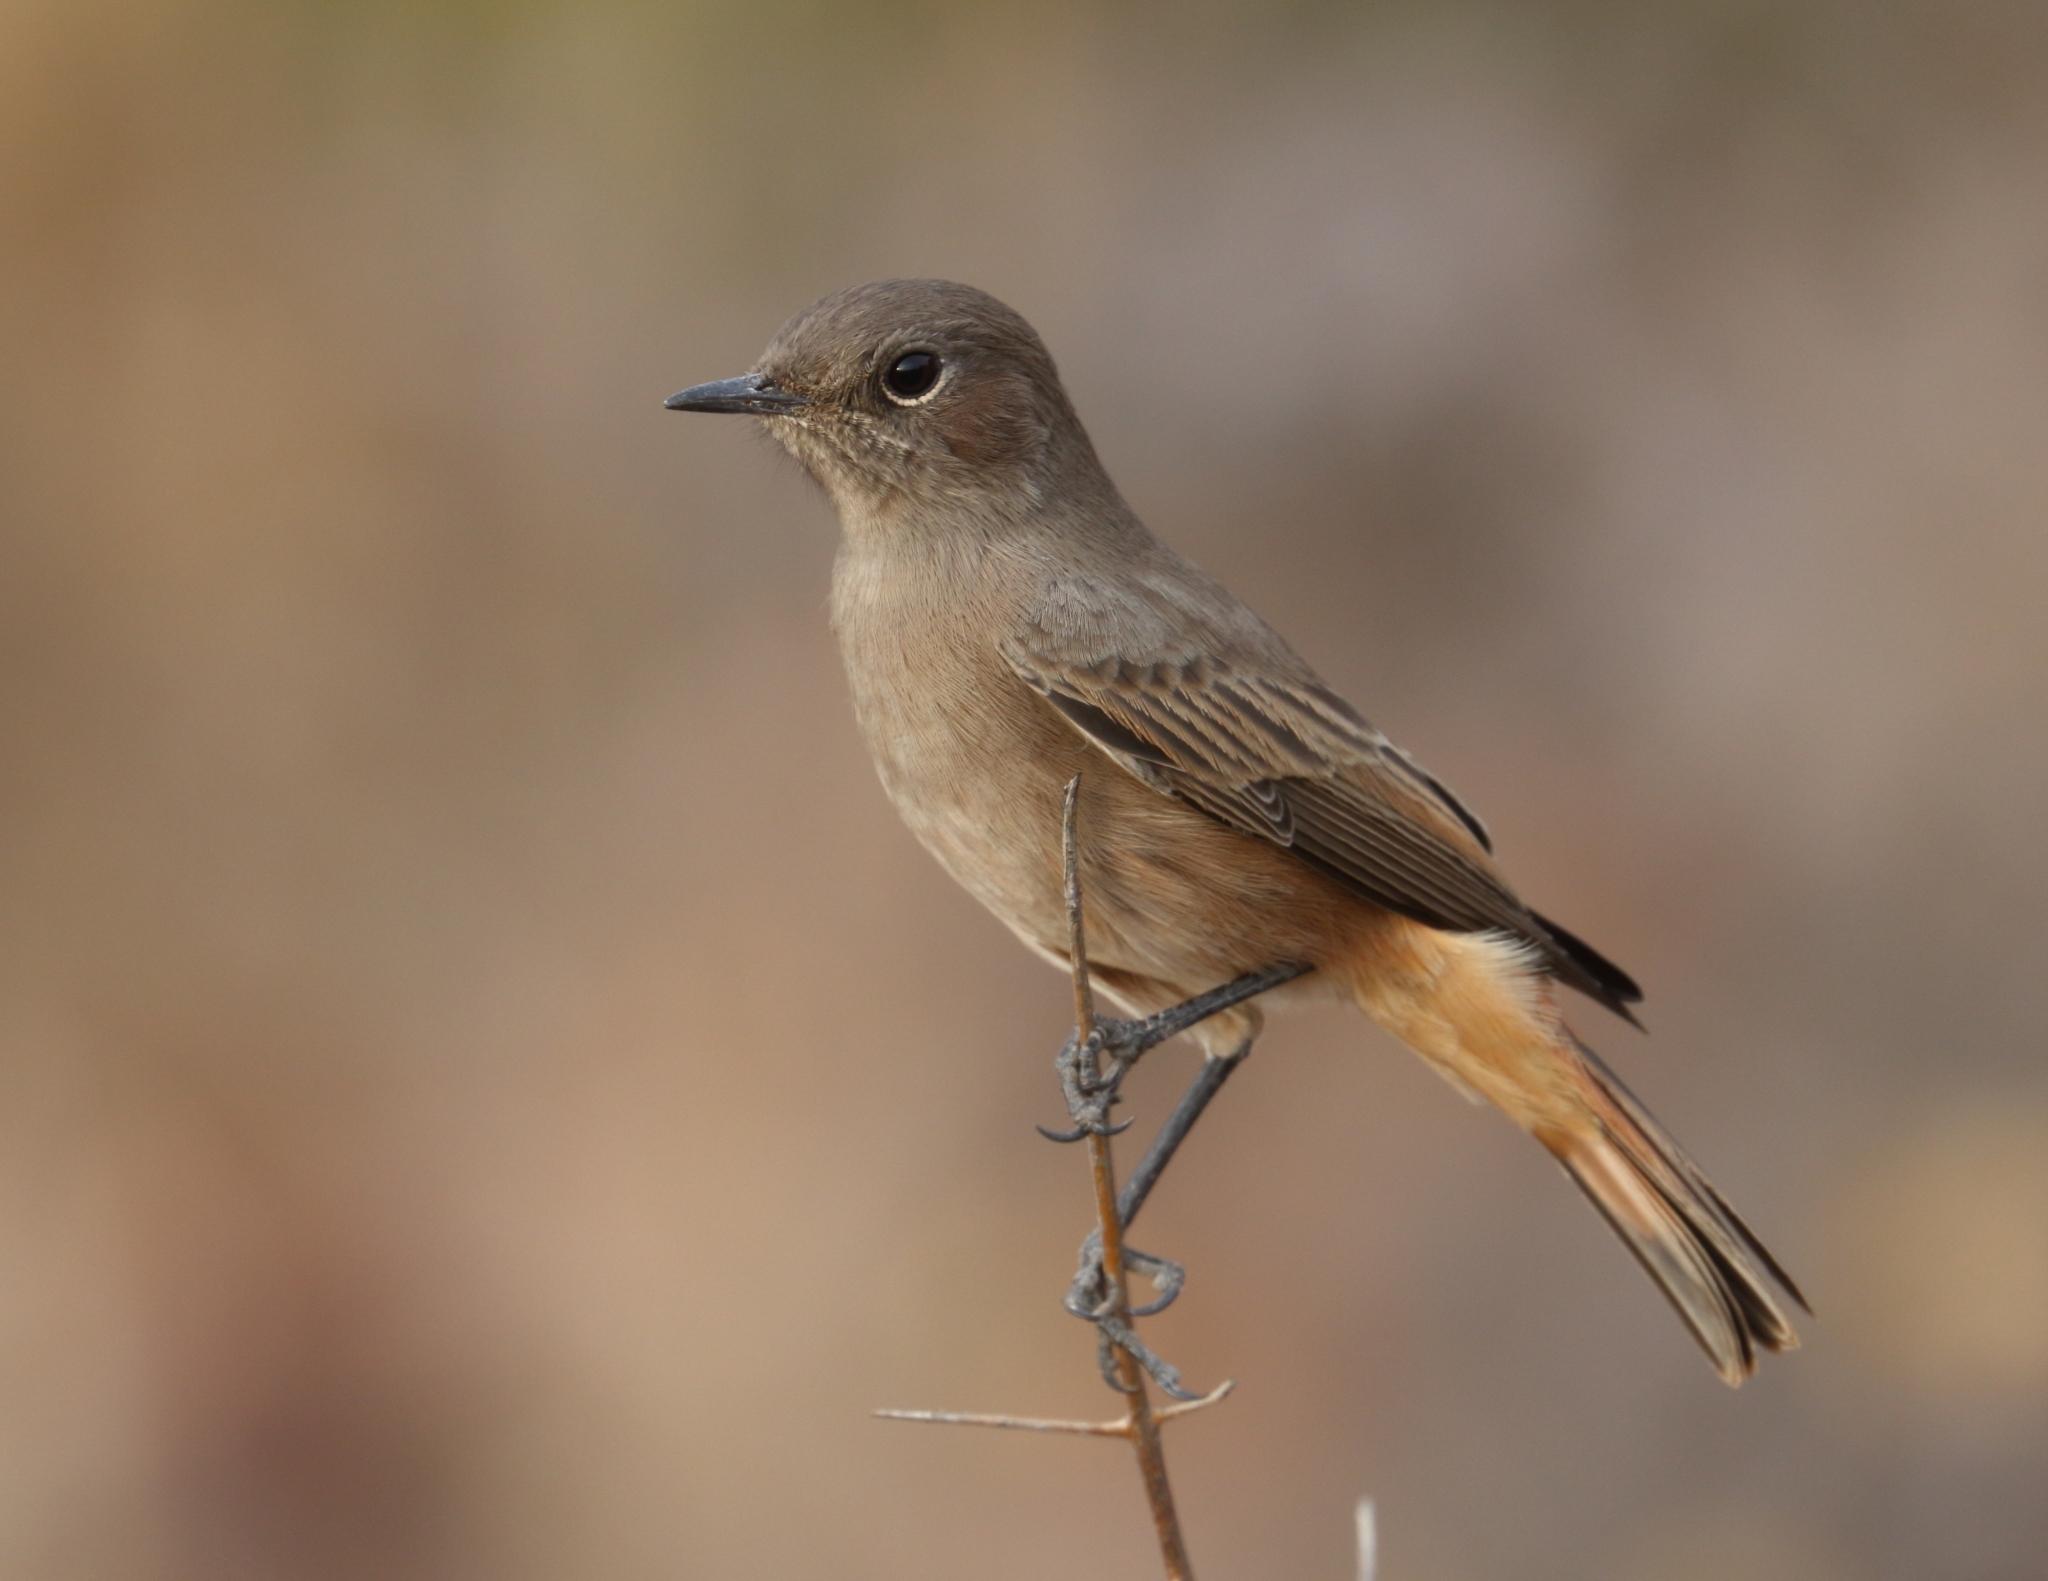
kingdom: Animalia
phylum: Chordata
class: Aves
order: Passeriformes
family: Muscicapidae
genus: Oenanthe
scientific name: Oenanthe familiaris
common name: Familiar chat
